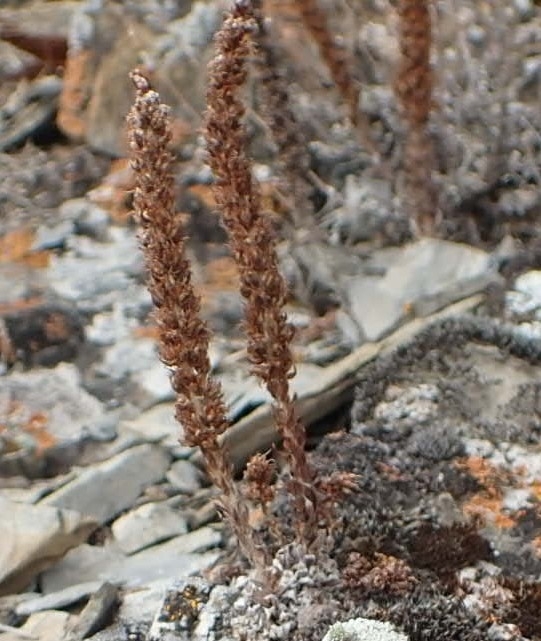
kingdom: Plantae
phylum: Tracheophyta
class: Magnoliopsida
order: Saxifragales
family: Crassulaceae
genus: Orostachys
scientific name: Orostachys spinosa
